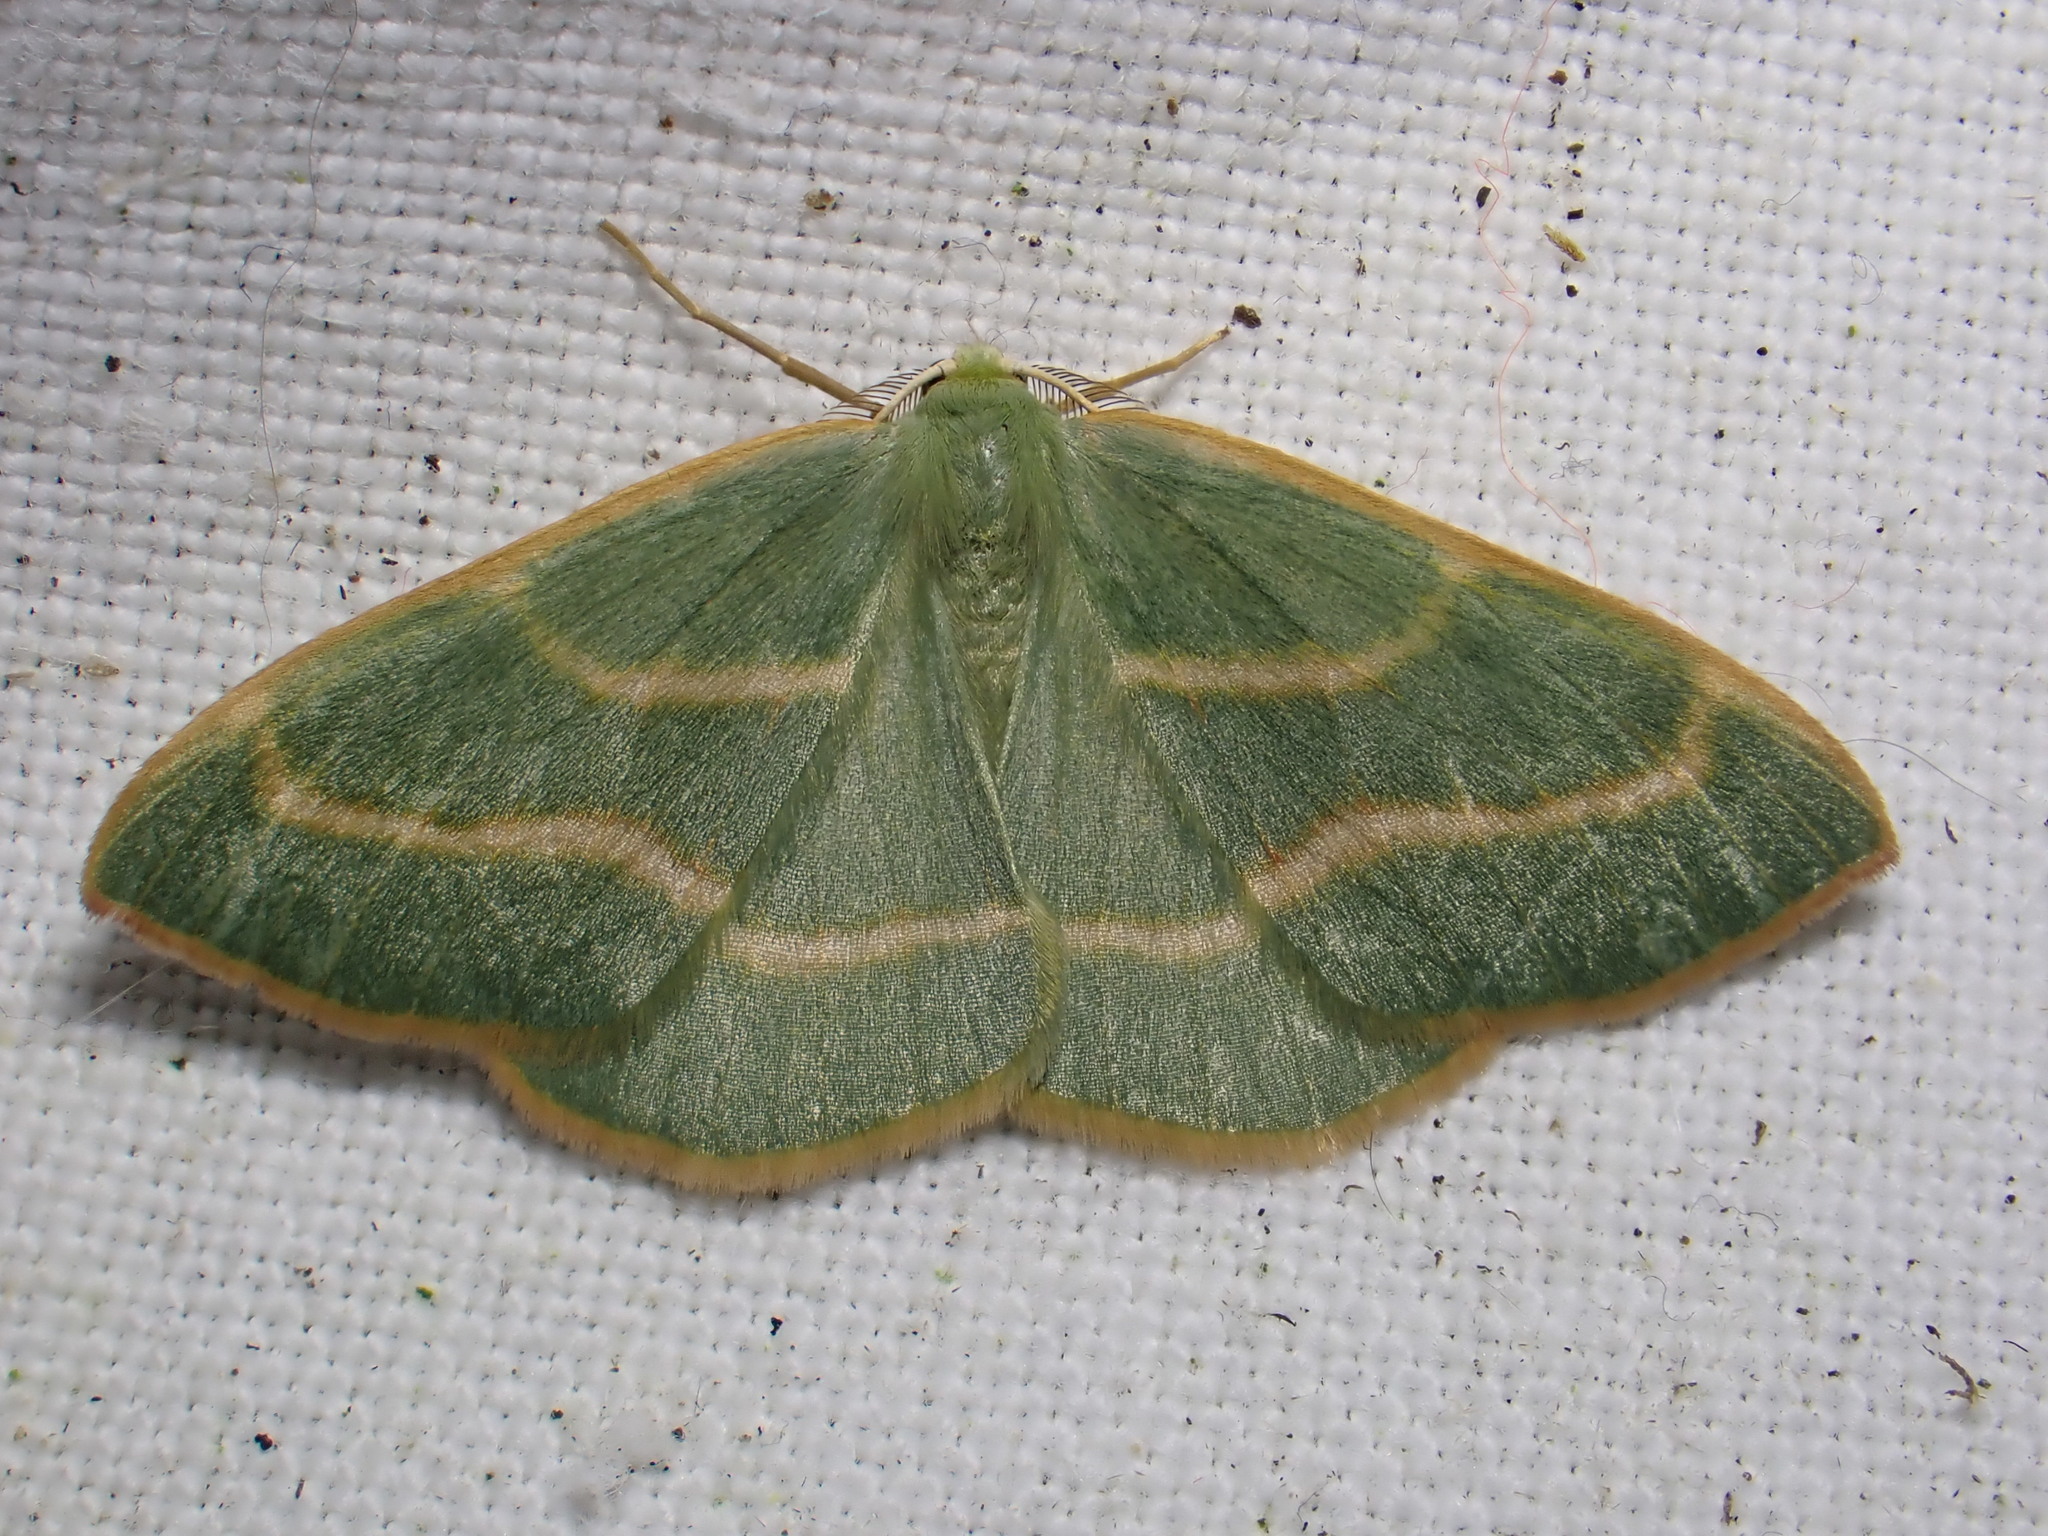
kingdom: Animalia
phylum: Arthropoda
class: Insecta
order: Lepidoptera
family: Geometridae
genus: Hylaea
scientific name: Hylaea fasciaria
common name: Barred red
